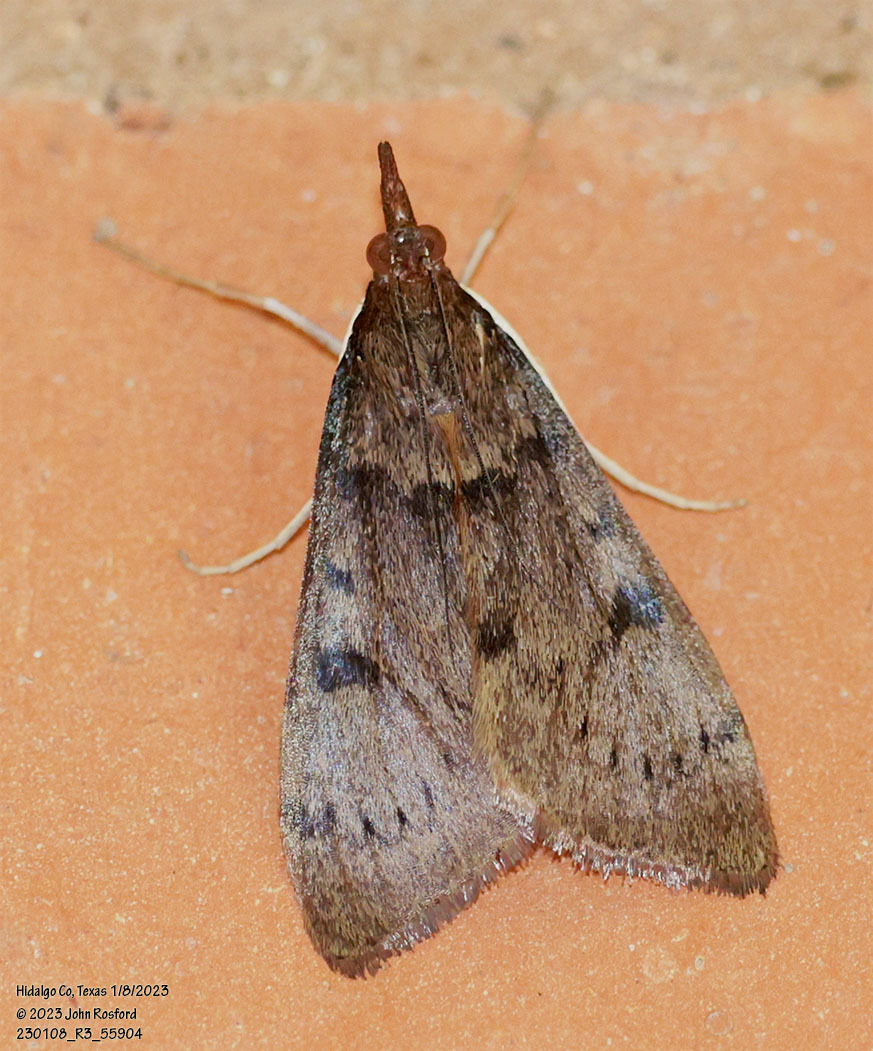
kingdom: Animalia
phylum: Arthropoda
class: Insecta
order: Lepidoptera
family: Crambidae
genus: Uresiphita
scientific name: Uresiphita reversalis
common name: Genista broom moth
